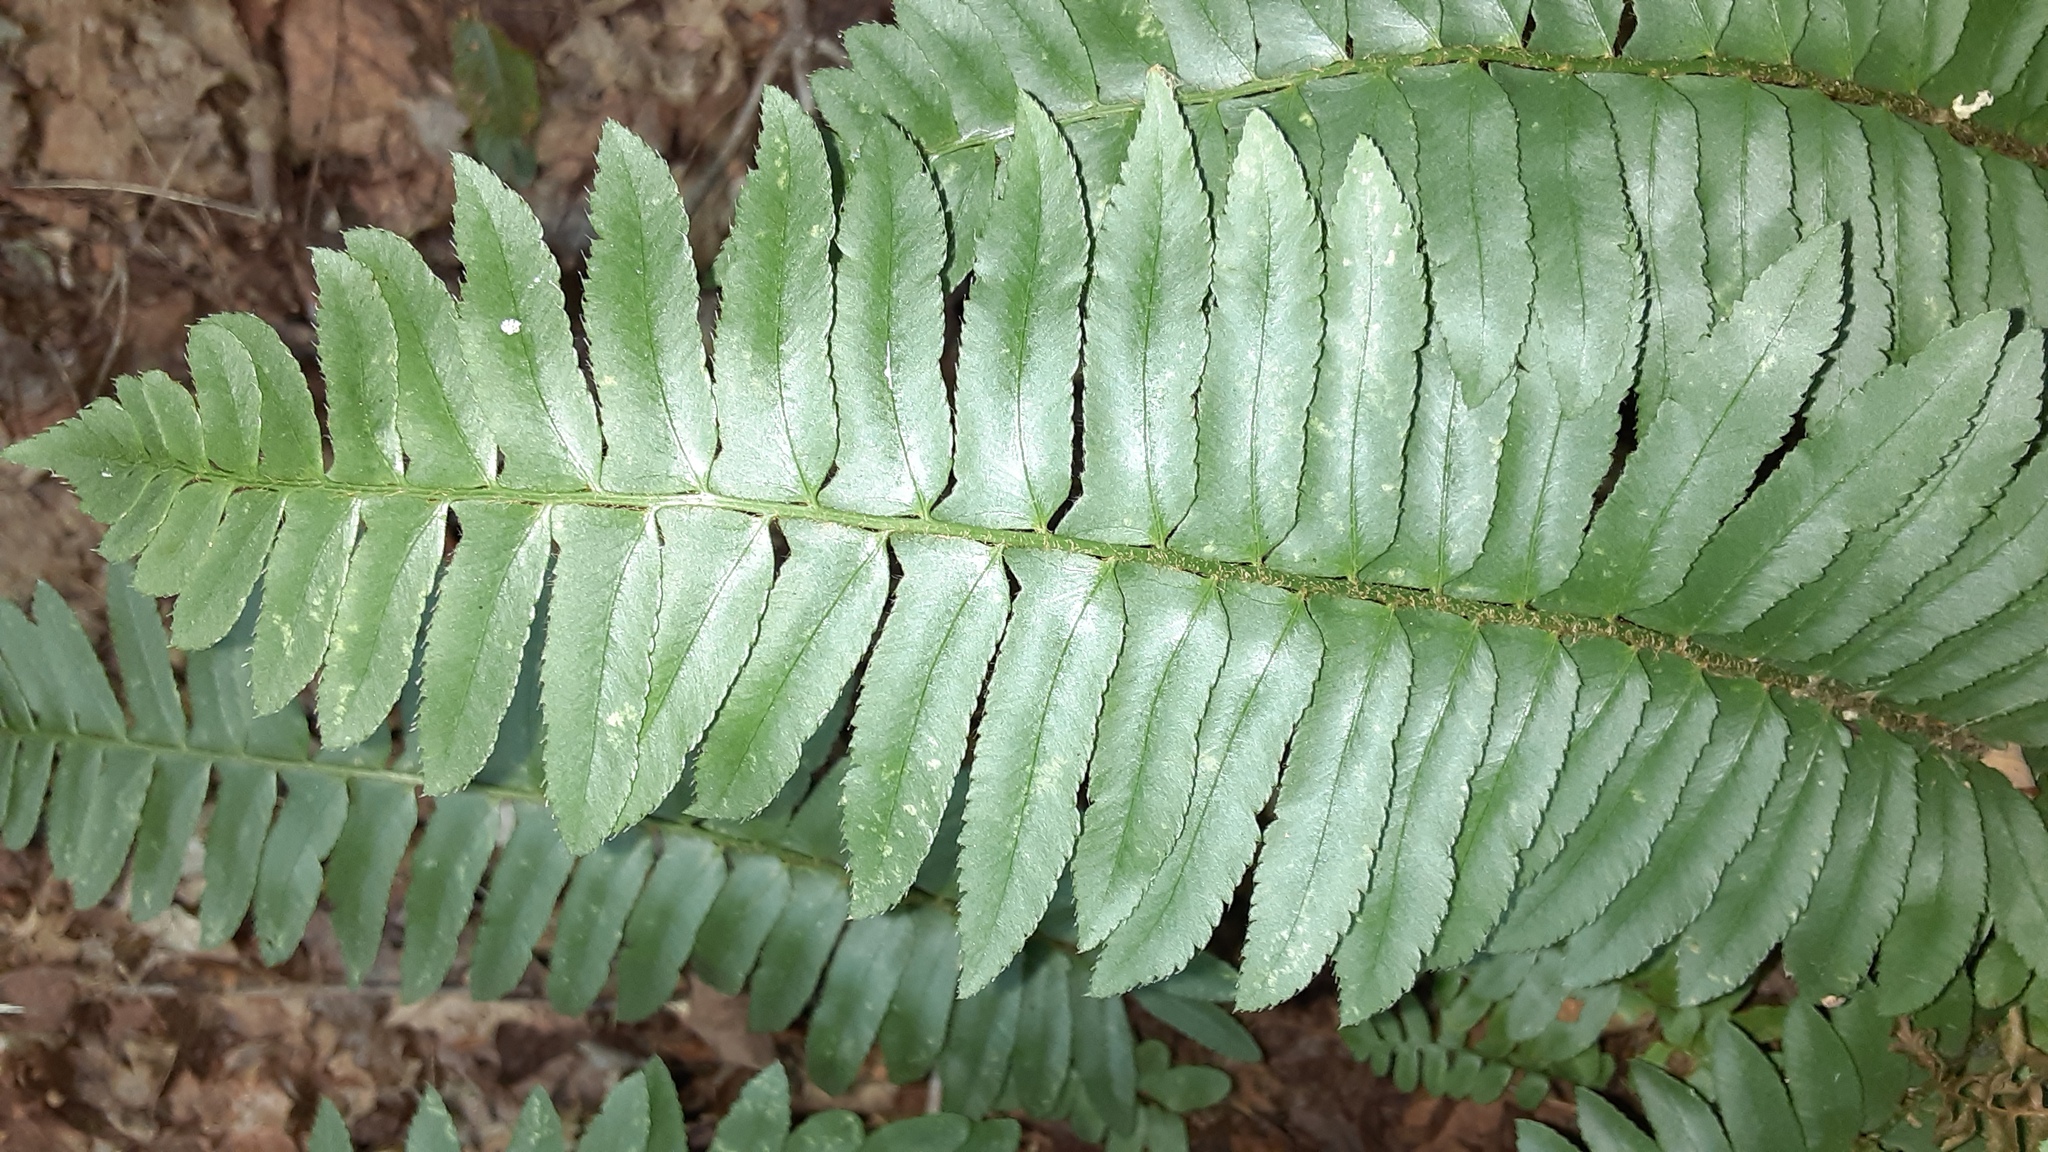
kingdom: Plantae
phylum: Tracheophyta
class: Polypodiopsida
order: Polypodiales
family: Dryopteridaceae
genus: Polystichum
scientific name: Polystichum acrostichoides
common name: Christmas fern
